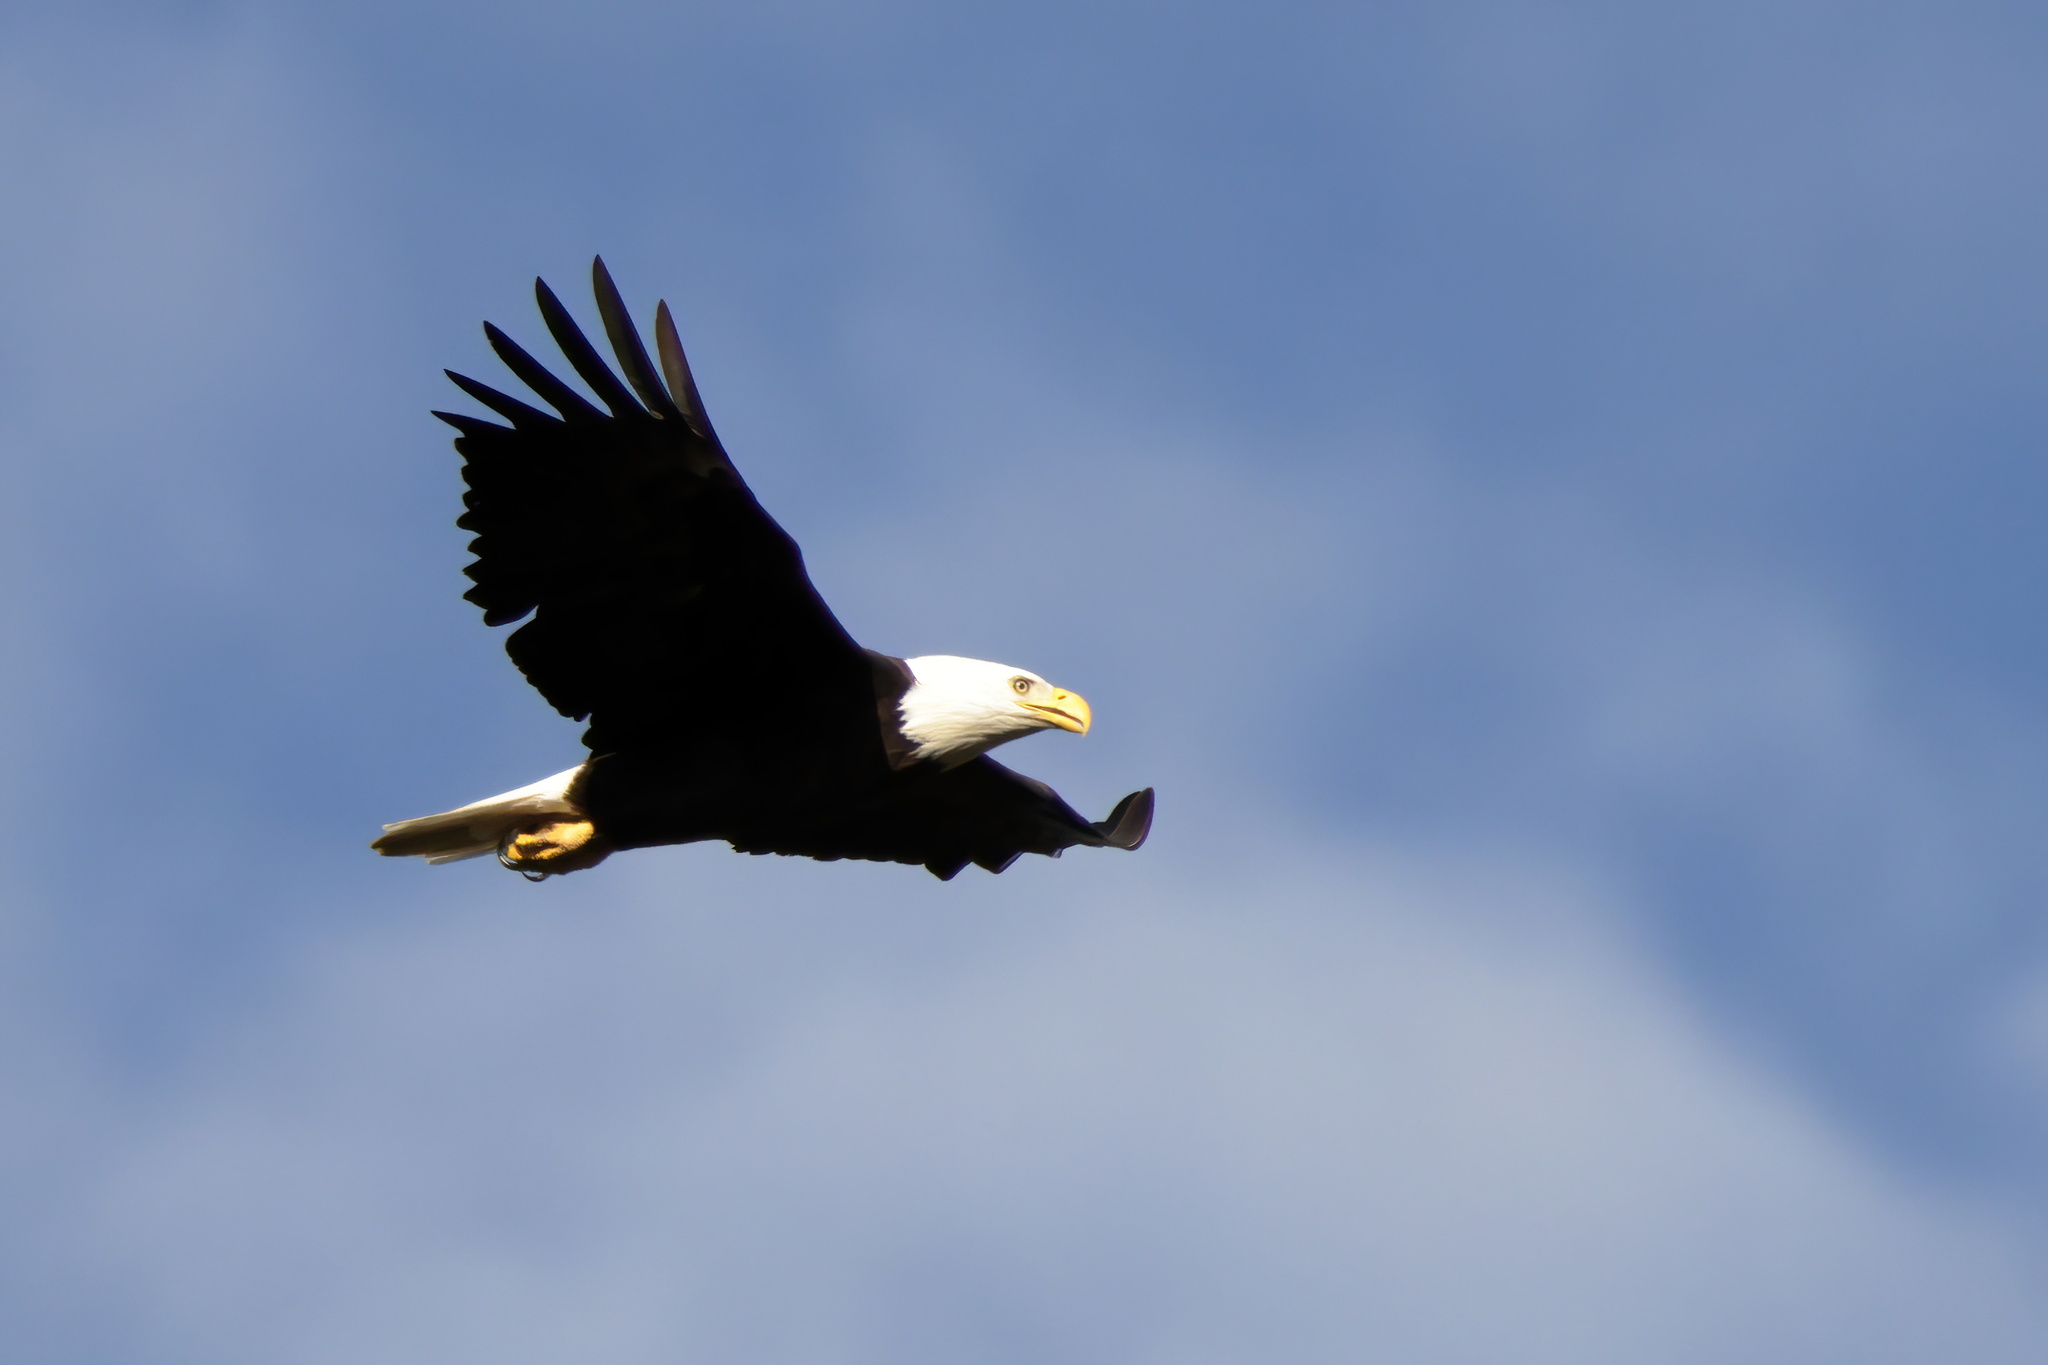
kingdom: Animalia
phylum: Chordata
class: Aves
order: Accipitriformes
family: Accipitridae
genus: Haliaeetus
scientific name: Haliaeetus leucocephalus
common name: Bald eagle
